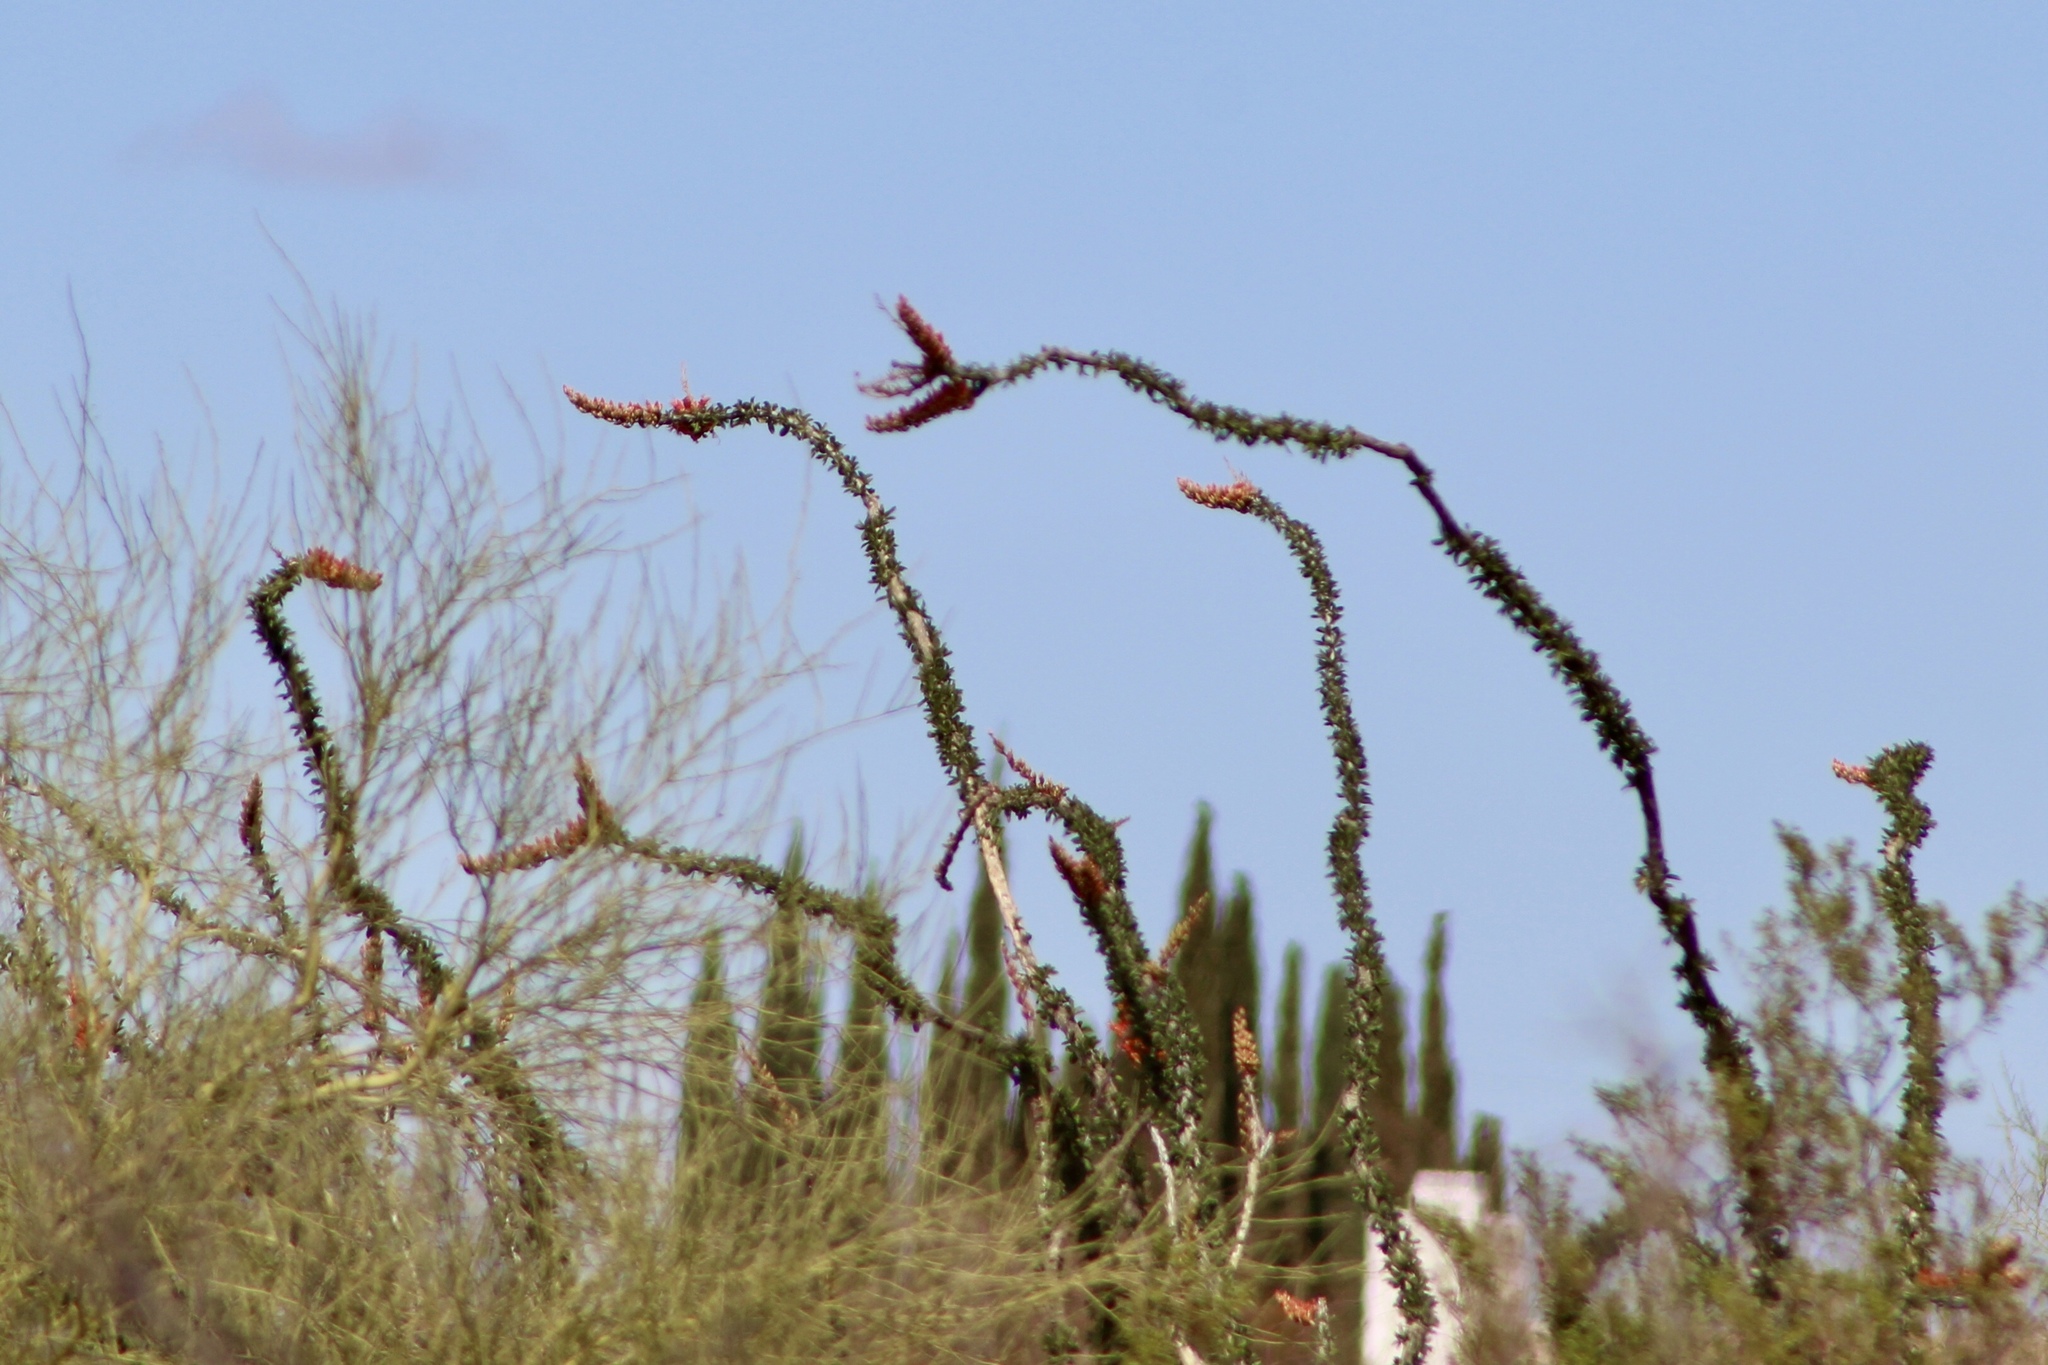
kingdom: Plantae
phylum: Tracheophyta
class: Magnoliopsida
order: Ericales
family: Fouquieriaceae
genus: Fouquieria
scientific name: Fouquieria splendens
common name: Vine-cactus
